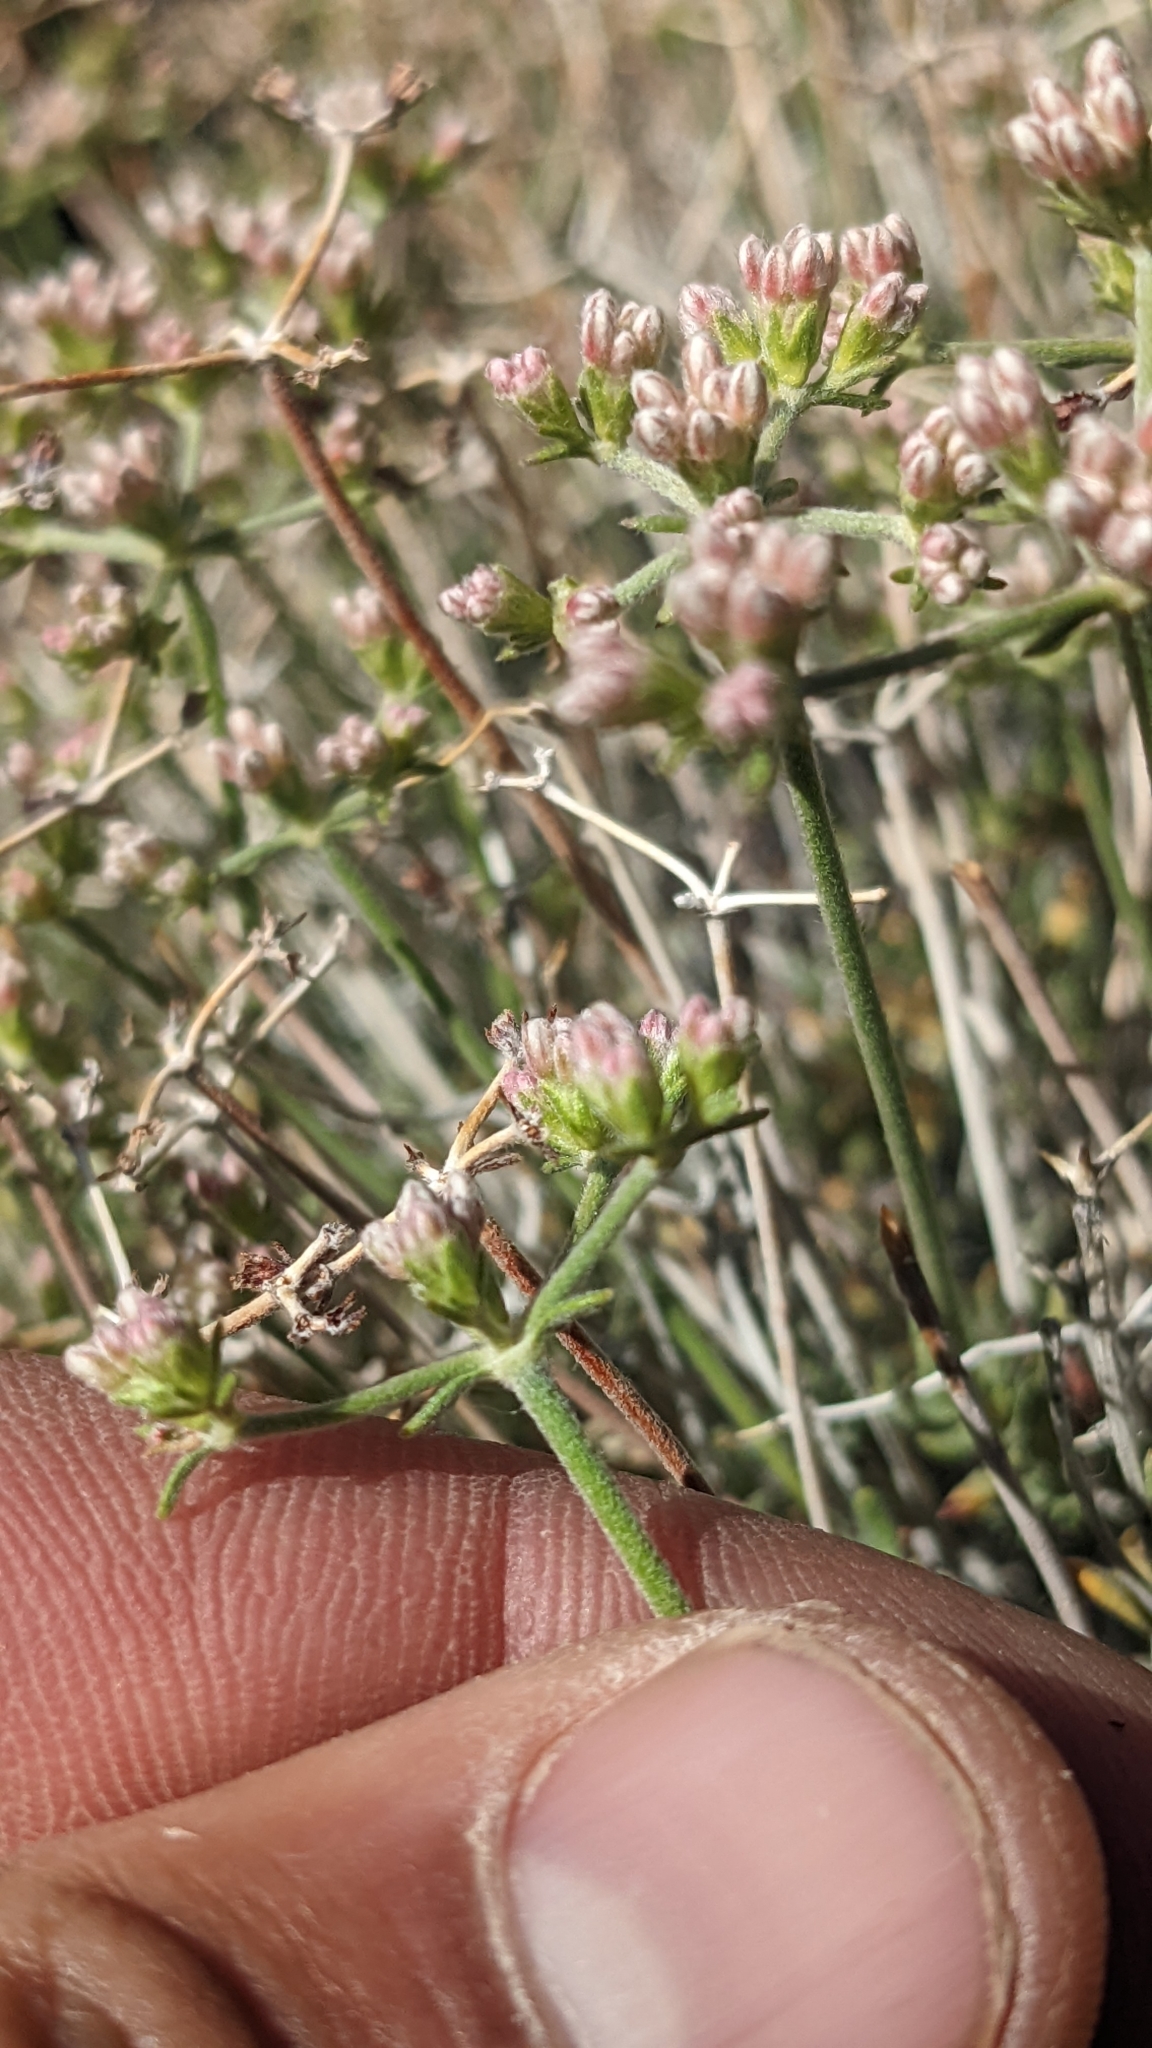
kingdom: Plantae
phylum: Tracheophyta
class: Magnoliopsida
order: Caryophyllales
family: Polygonaceae
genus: Eriogonum
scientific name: Eriogonum fasciculatum
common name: California wild buckwheat
